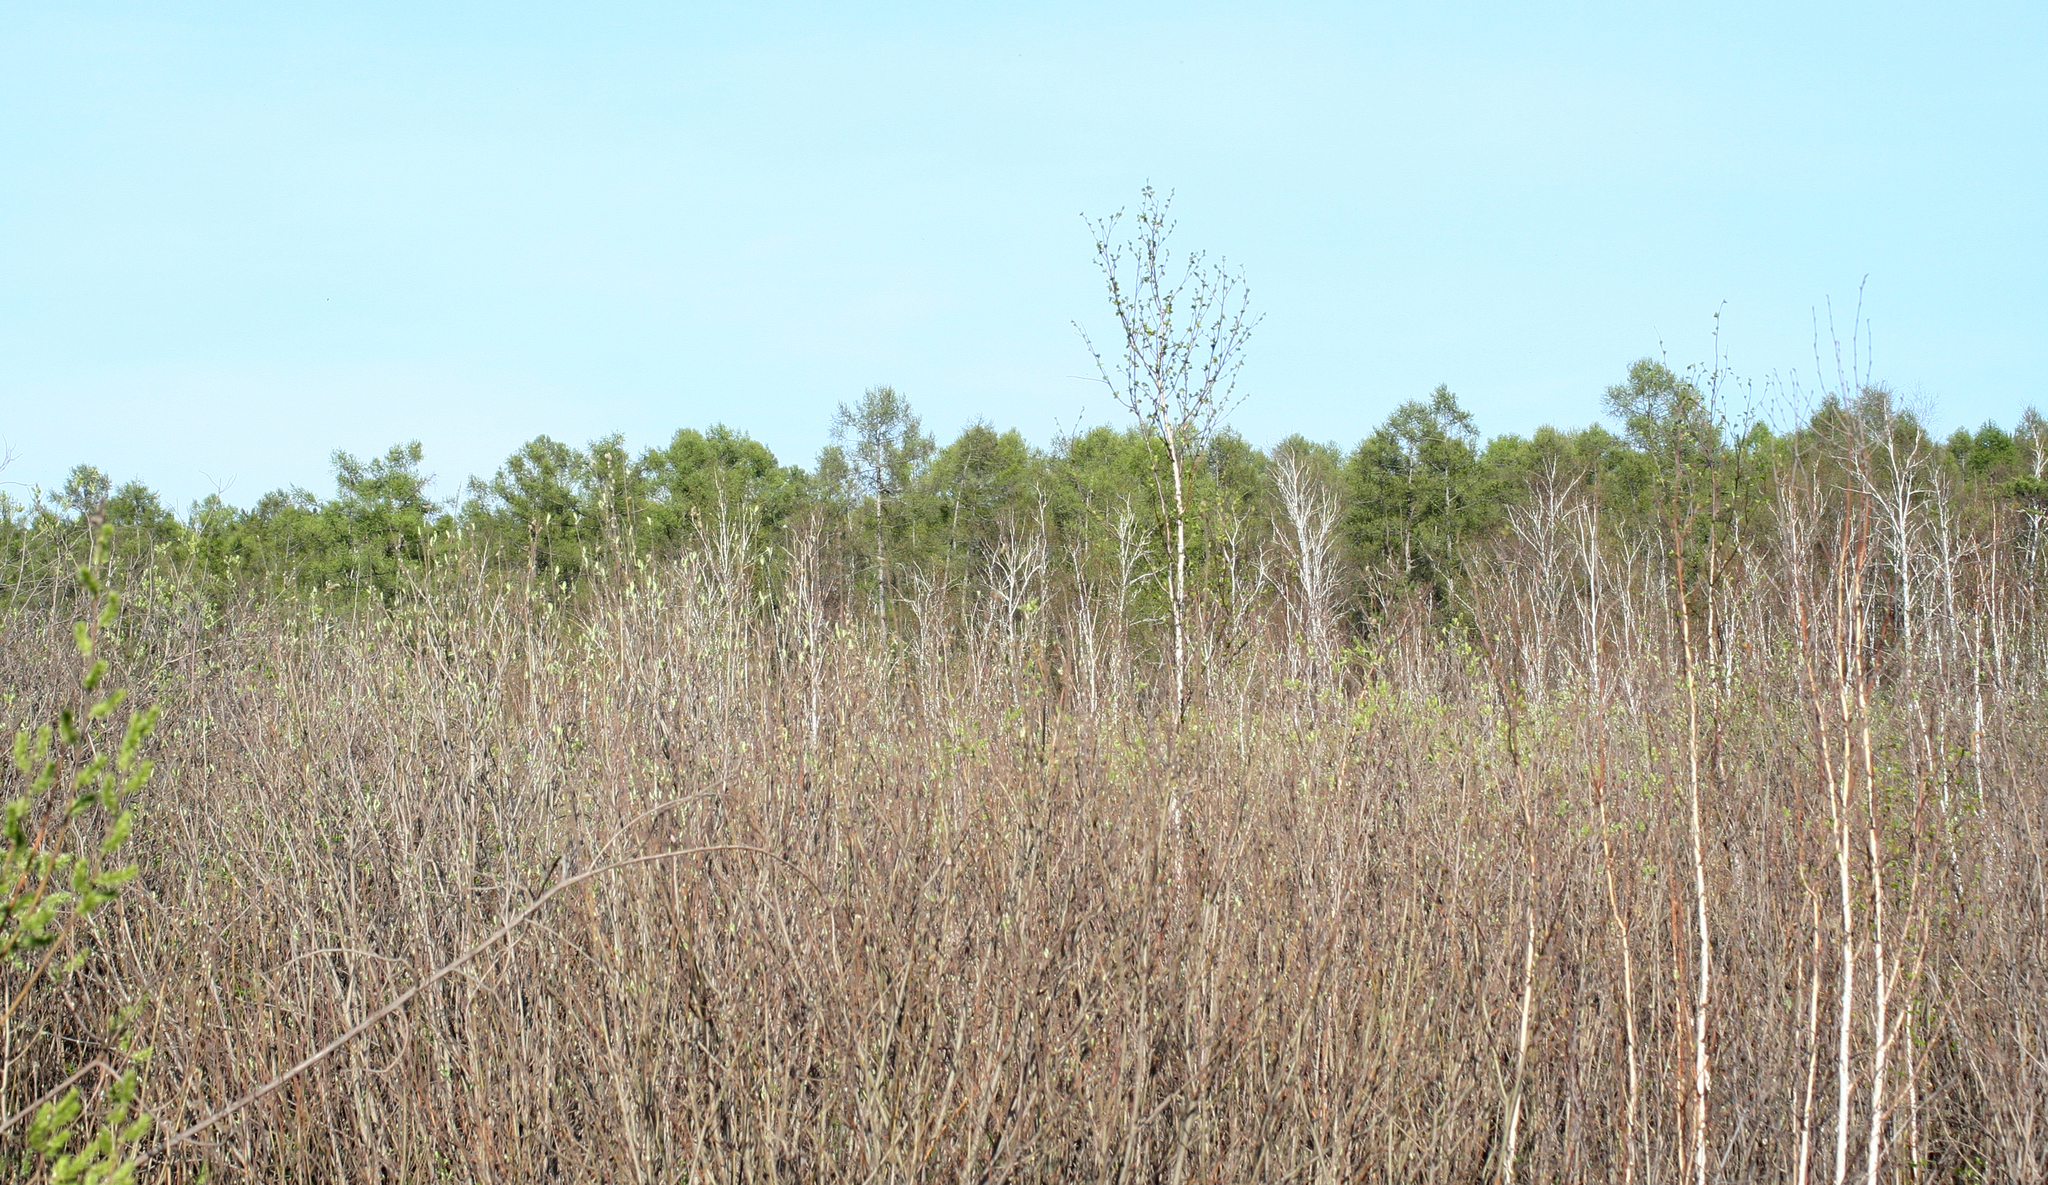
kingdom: Plantae
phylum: Tracheophyta
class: Pinopsida
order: Pinales
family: Pinaceae
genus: Larix
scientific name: Larix sibirica
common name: Siberian larch
